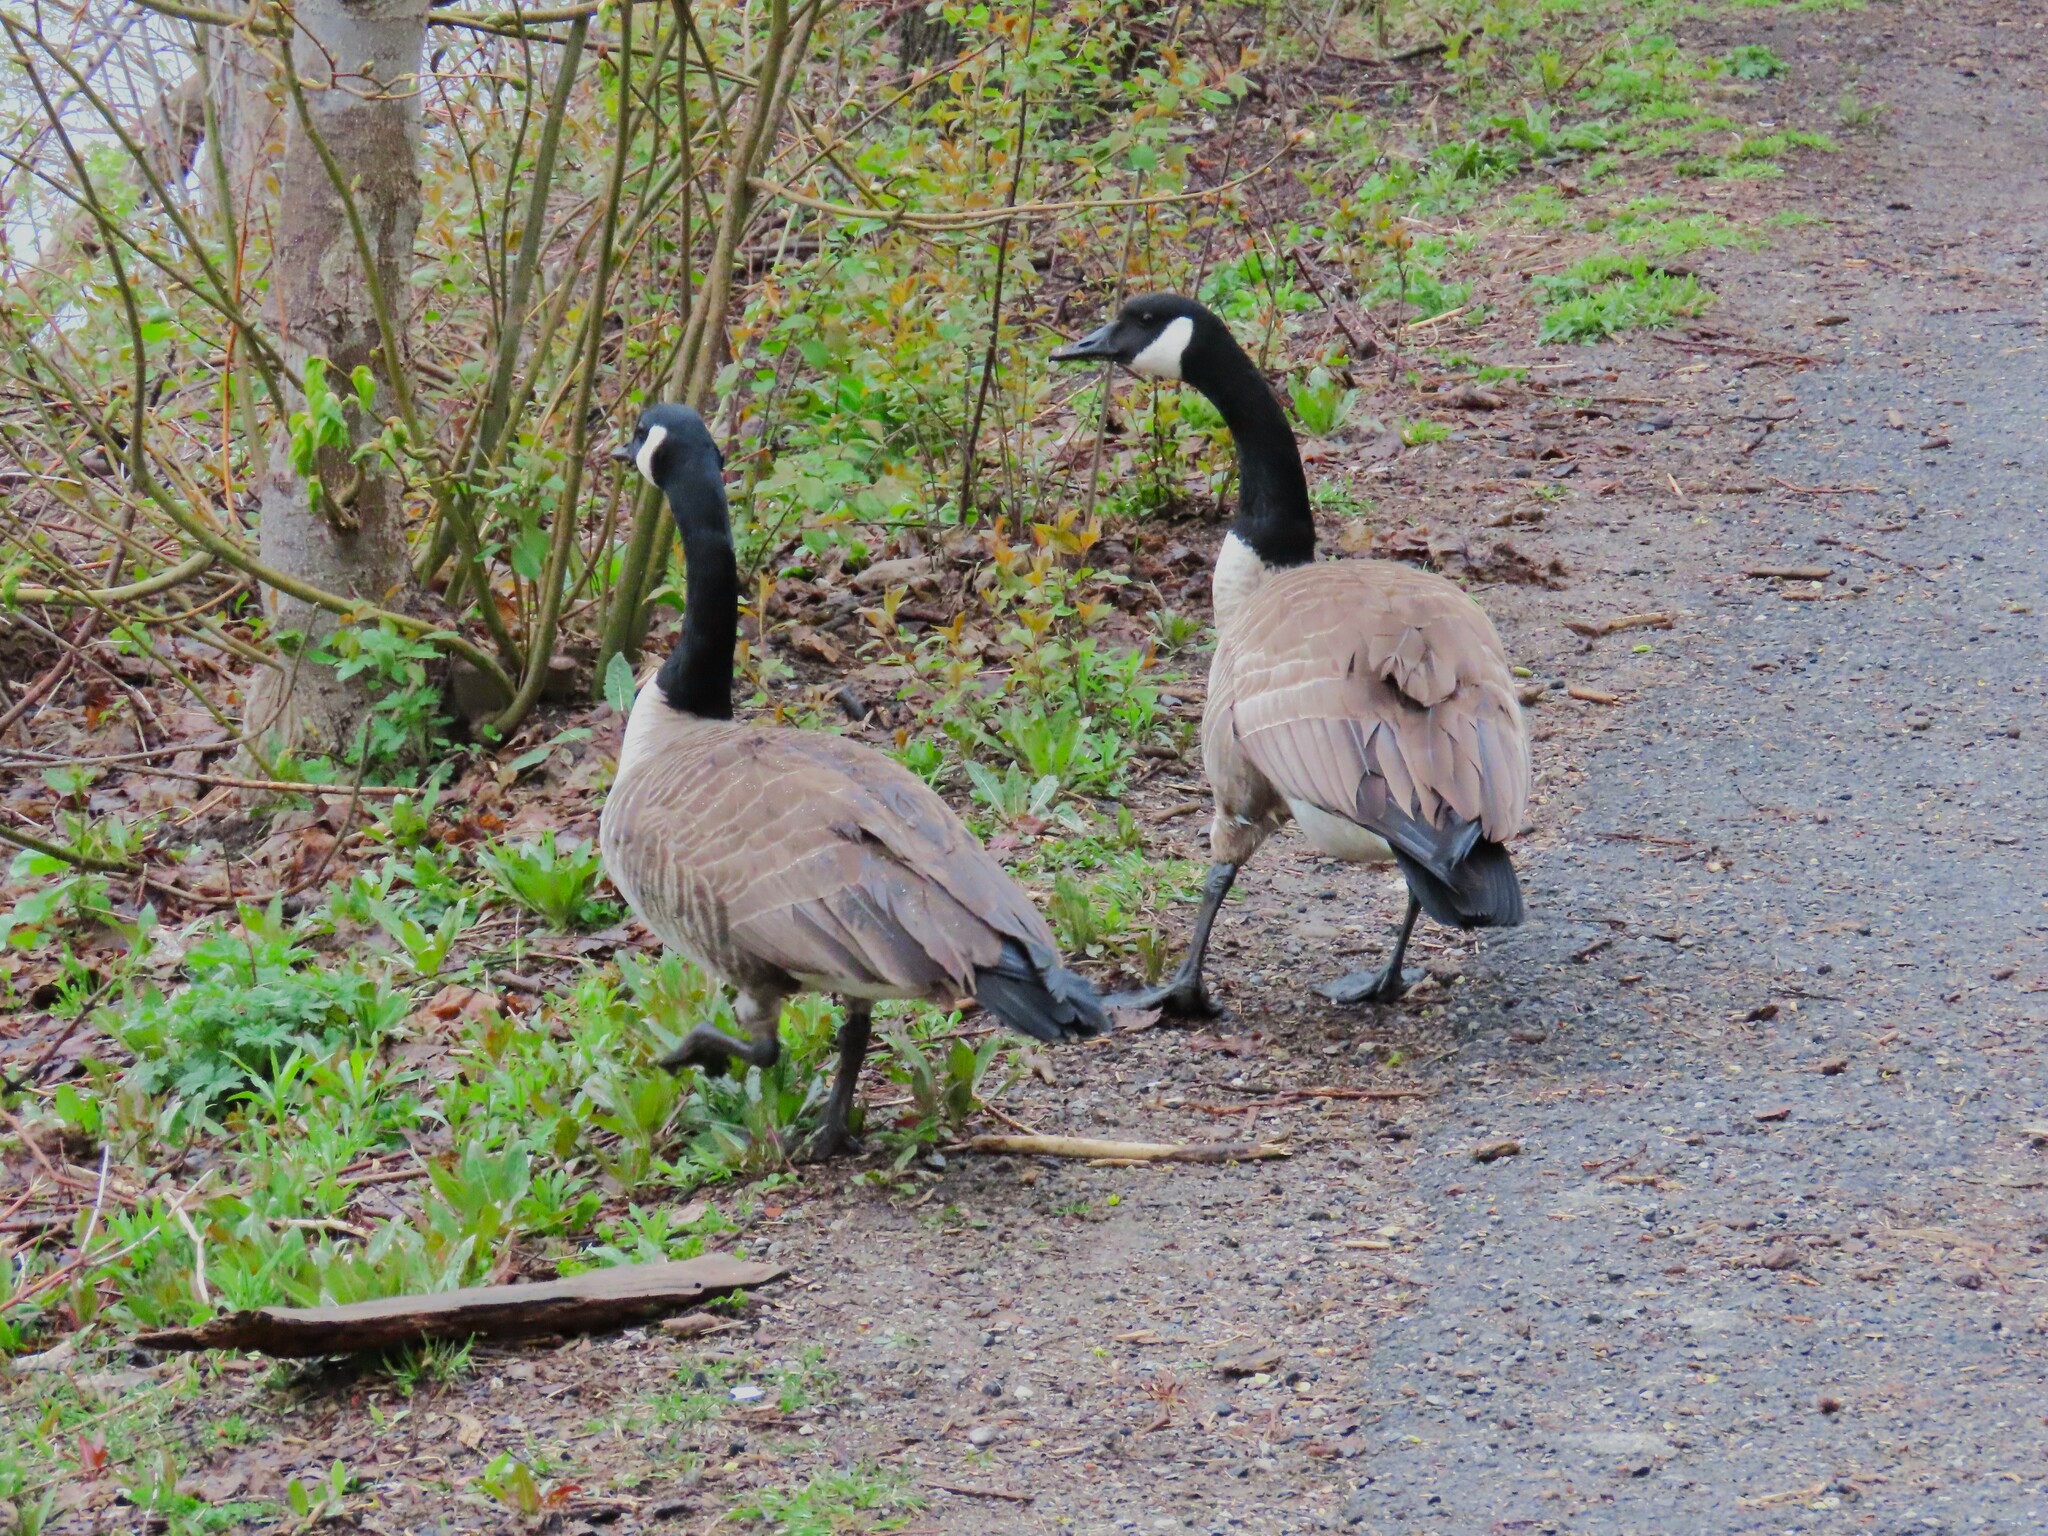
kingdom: Animalia
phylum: Chordata
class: Aves
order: Anseriformes
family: Anatidae
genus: Branta
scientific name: Branta canadensis
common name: Canada goose
